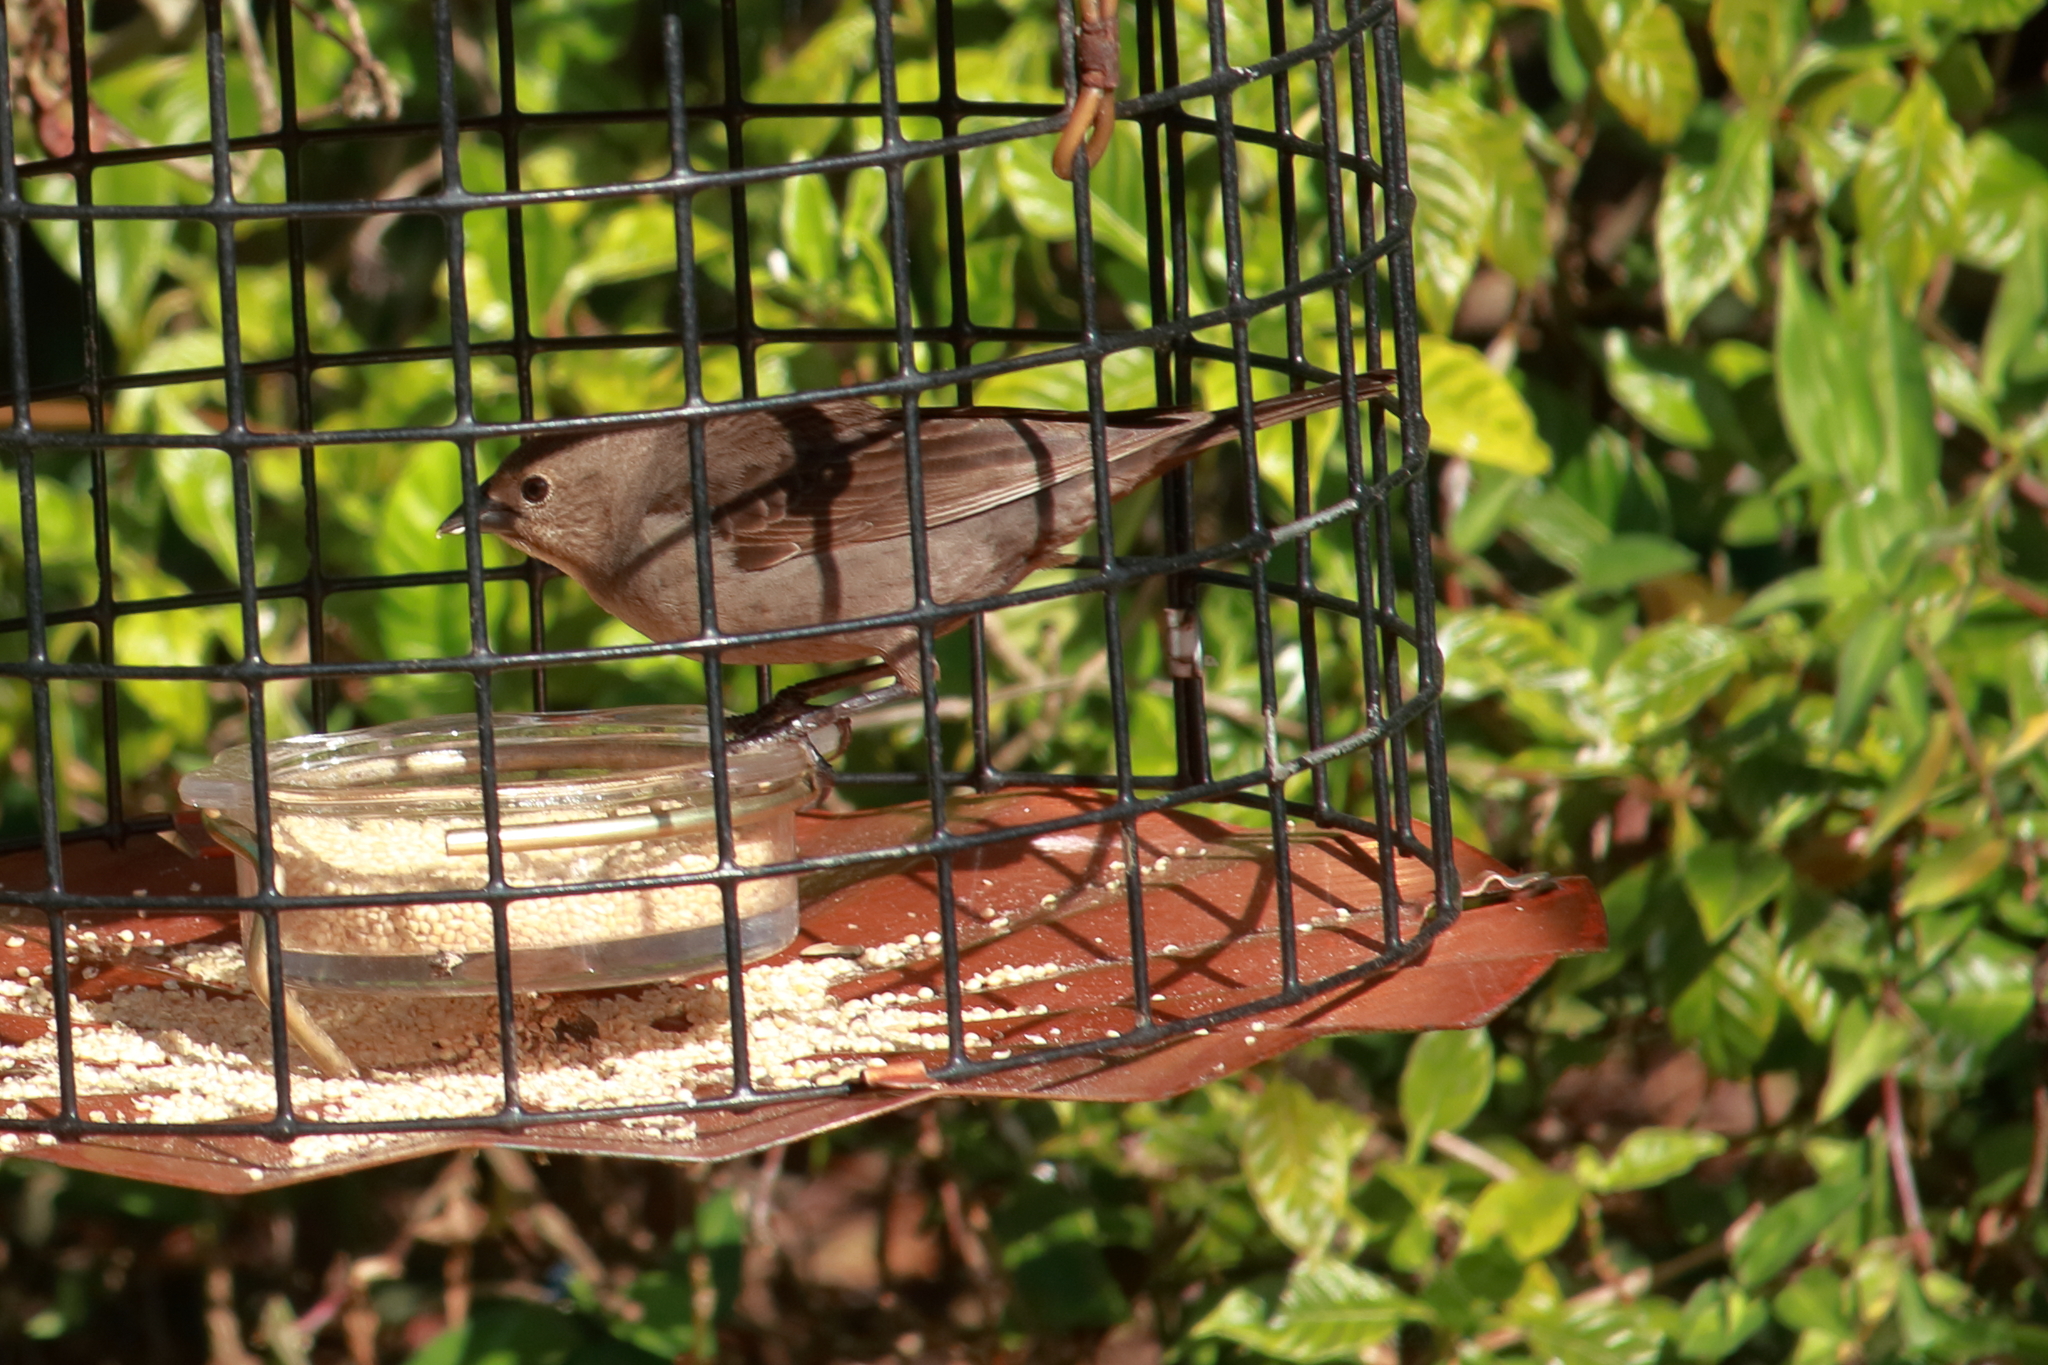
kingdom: Animalia
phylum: Chordata
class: Aves
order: Passeriformes
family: Icteridae
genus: Molothrus
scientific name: Molothrus ater
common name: Brown-headed cowbird
